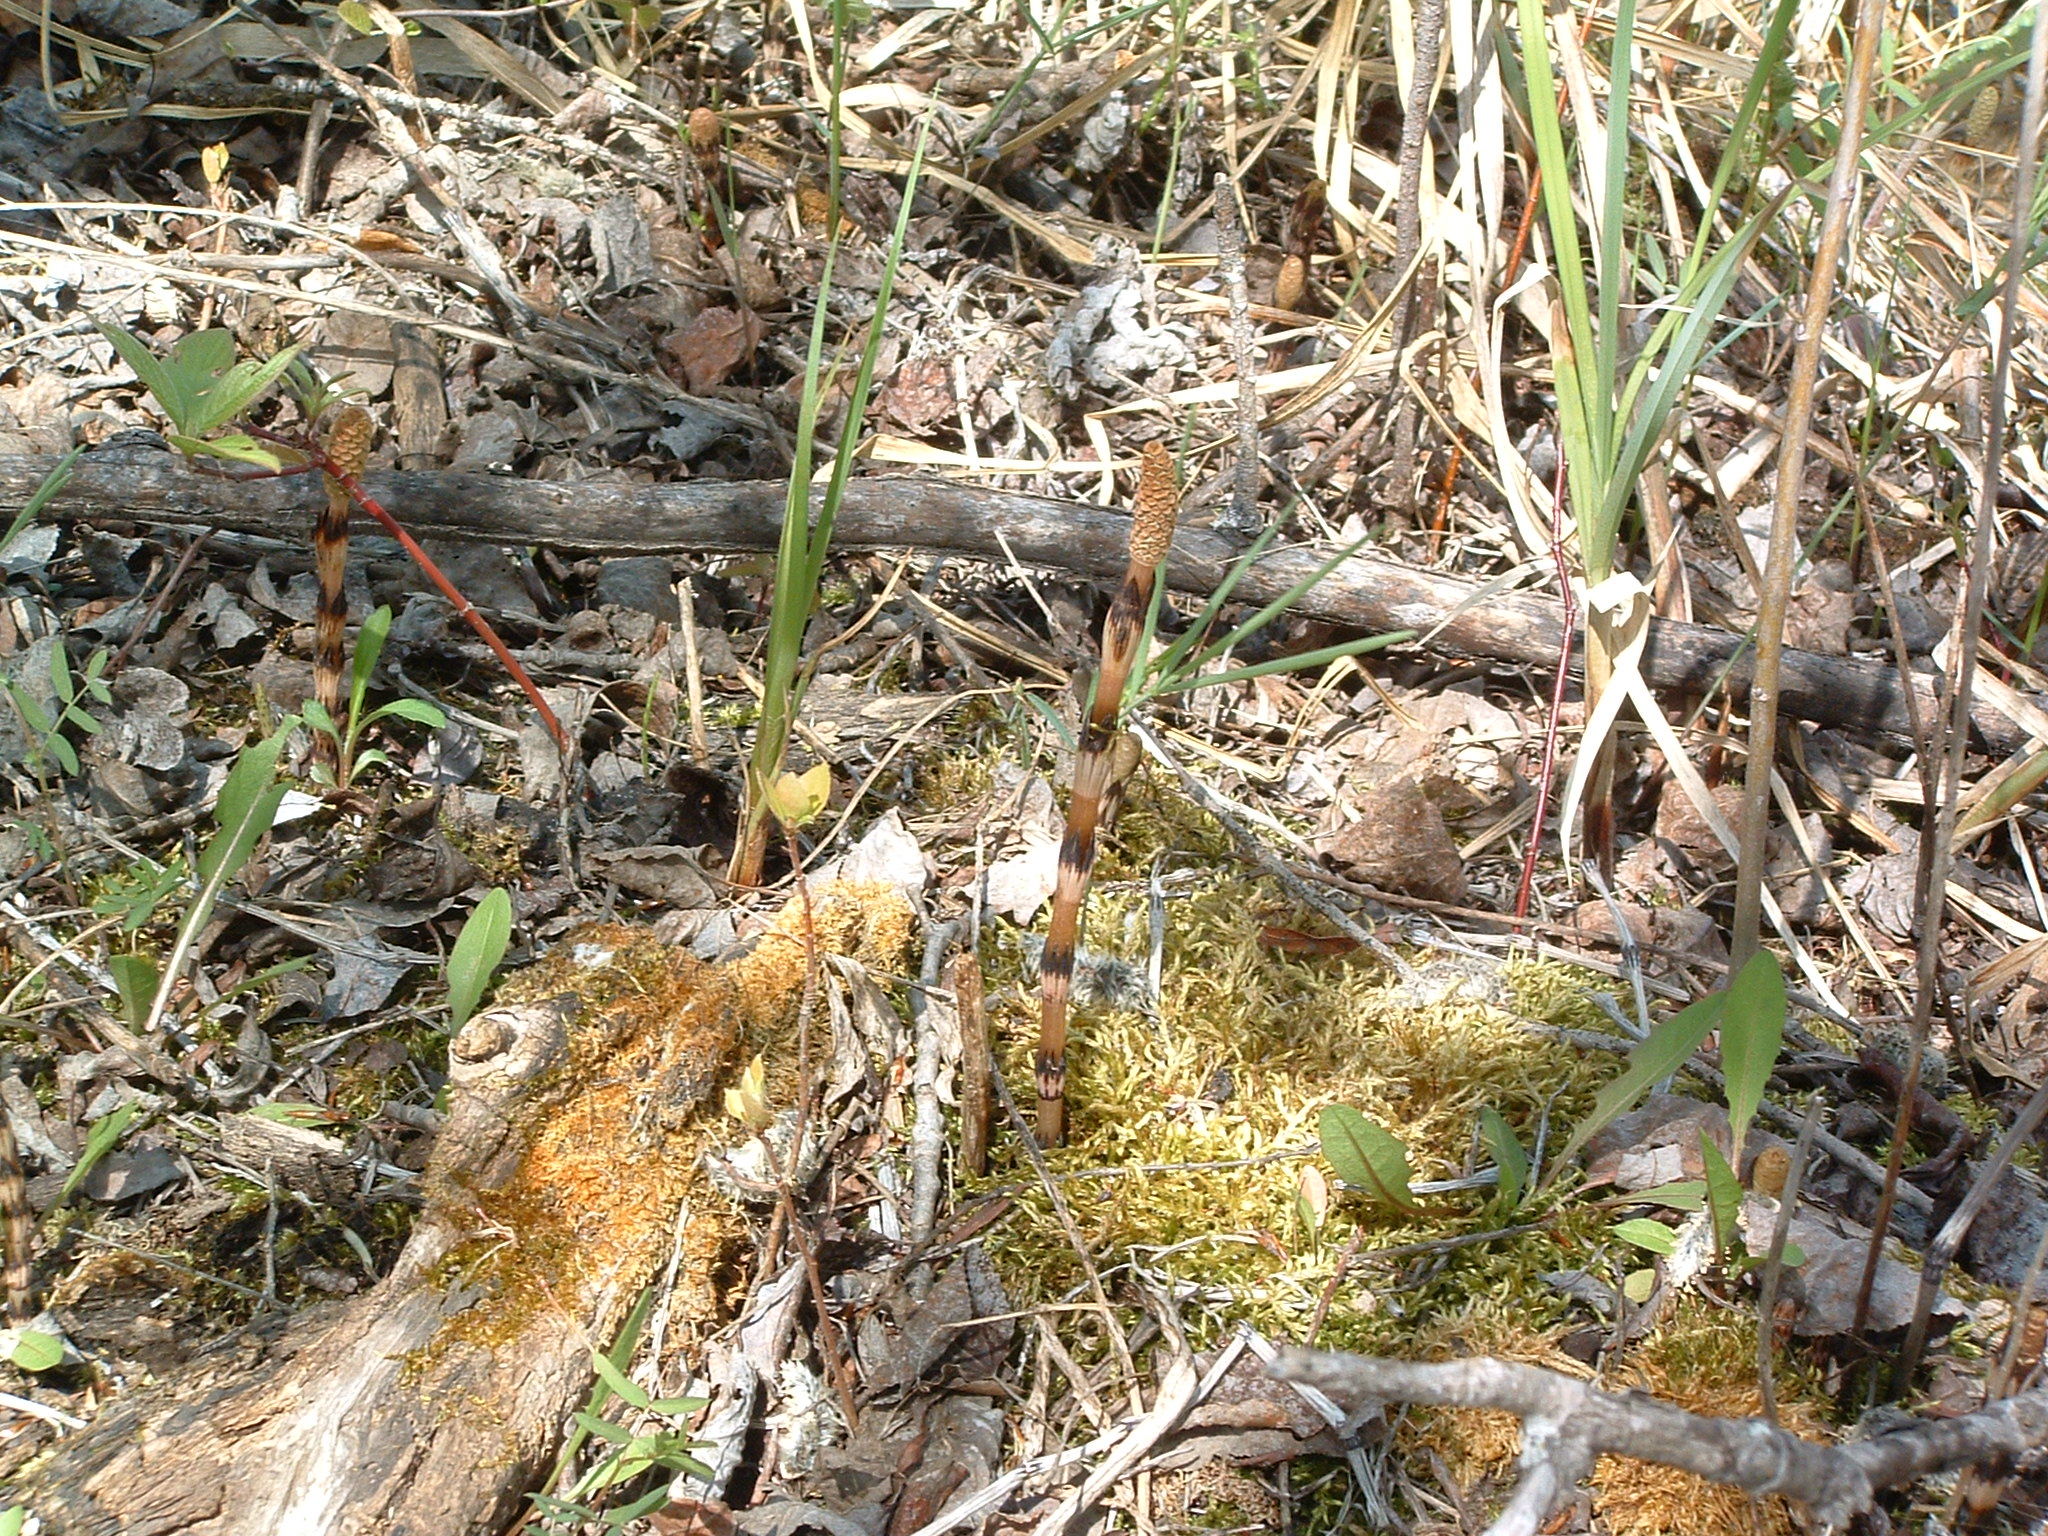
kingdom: Plantae
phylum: Tracheophyta
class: Polypodiopsida
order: Equisetales
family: Equisetaceae
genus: Equisetum
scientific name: Equisetum arvense
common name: Field horsetail
